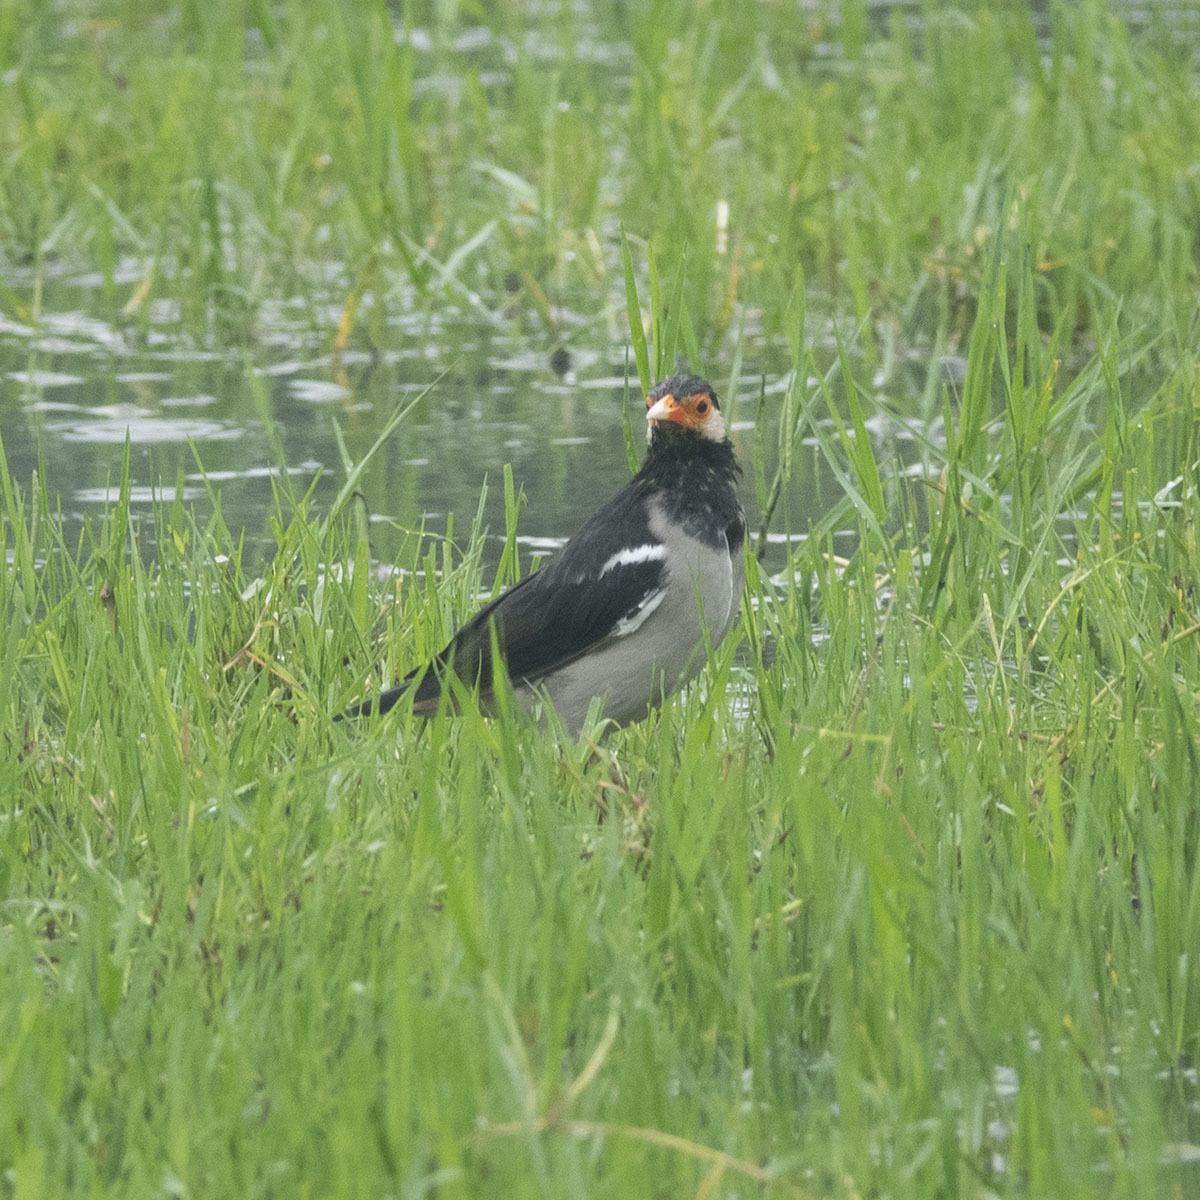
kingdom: Animalia
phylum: Chordata
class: Aves
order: Passeriformes
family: Sturnidae
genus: Gracupica
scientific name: Gracupica contra
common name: Pied myna
